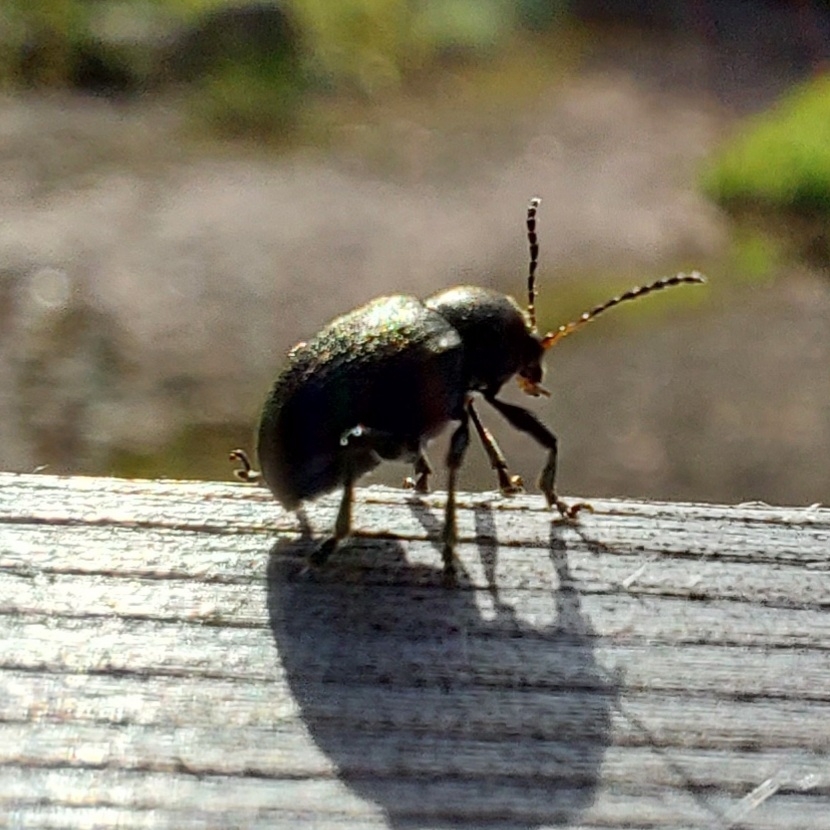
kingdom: Animalia
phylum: Arthropoda
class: Insecta
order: Coleoptera
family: Chrysomelidae
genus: Bromius
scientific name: Bromius obscurus
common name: Western grape rootworm
